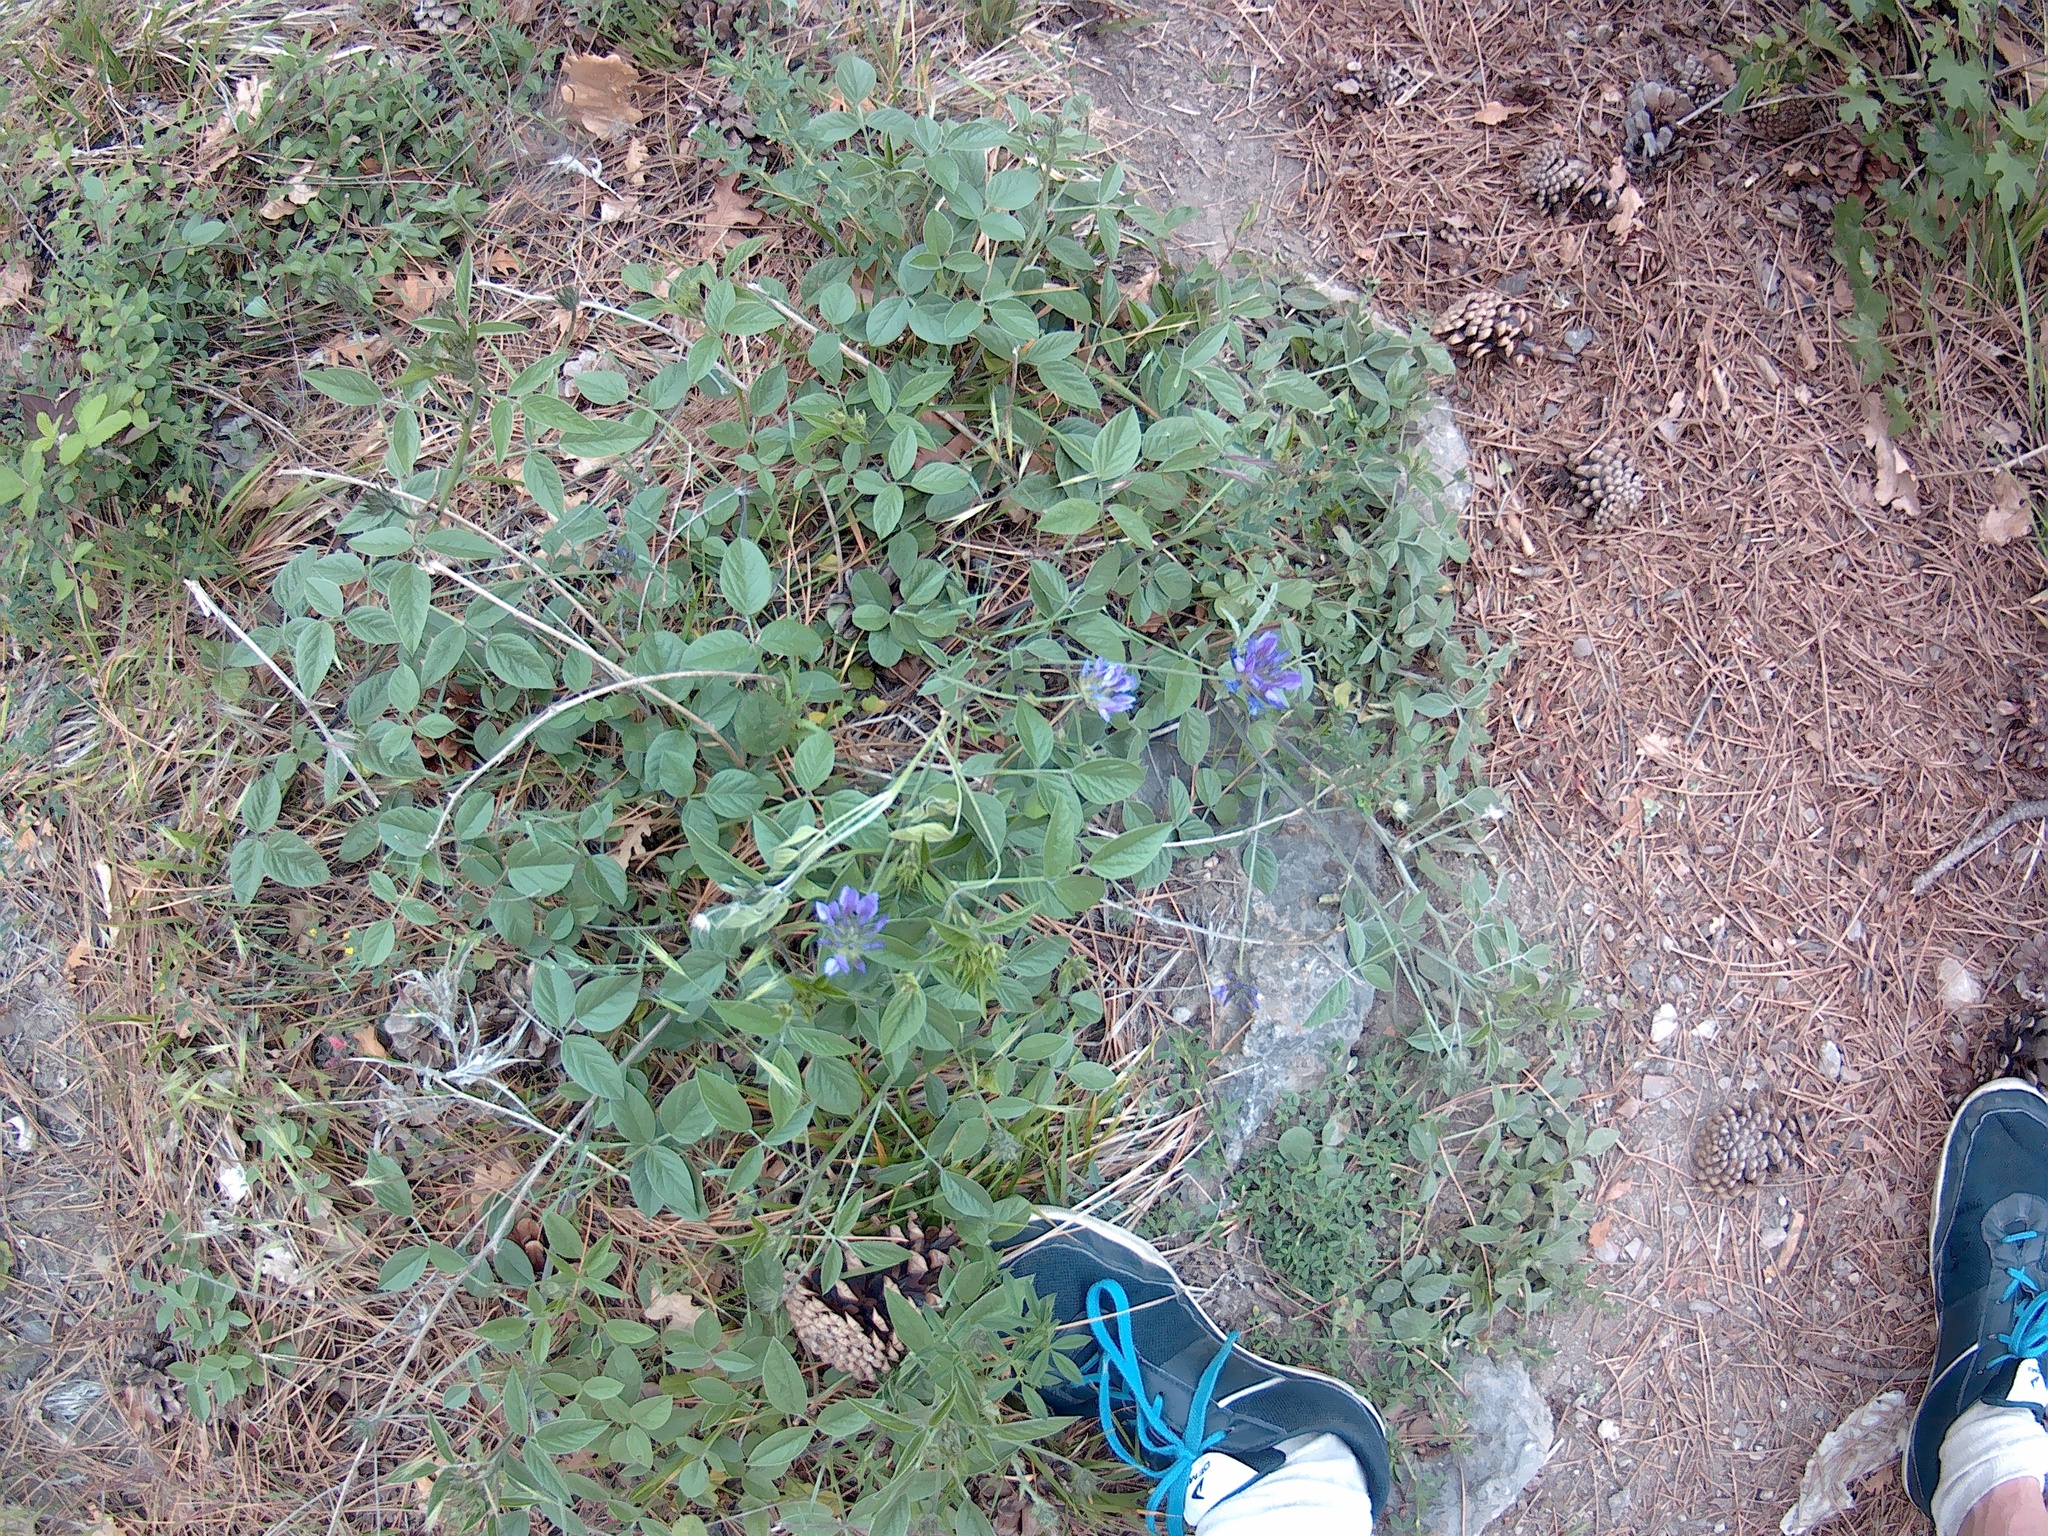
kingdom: Plantae
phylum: Tracheophyta
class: Magnoliopsida
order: Fabales
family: Fabaceae
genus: Bituminaria
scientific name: Bituminaria bituminosa
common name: Arabian pea
